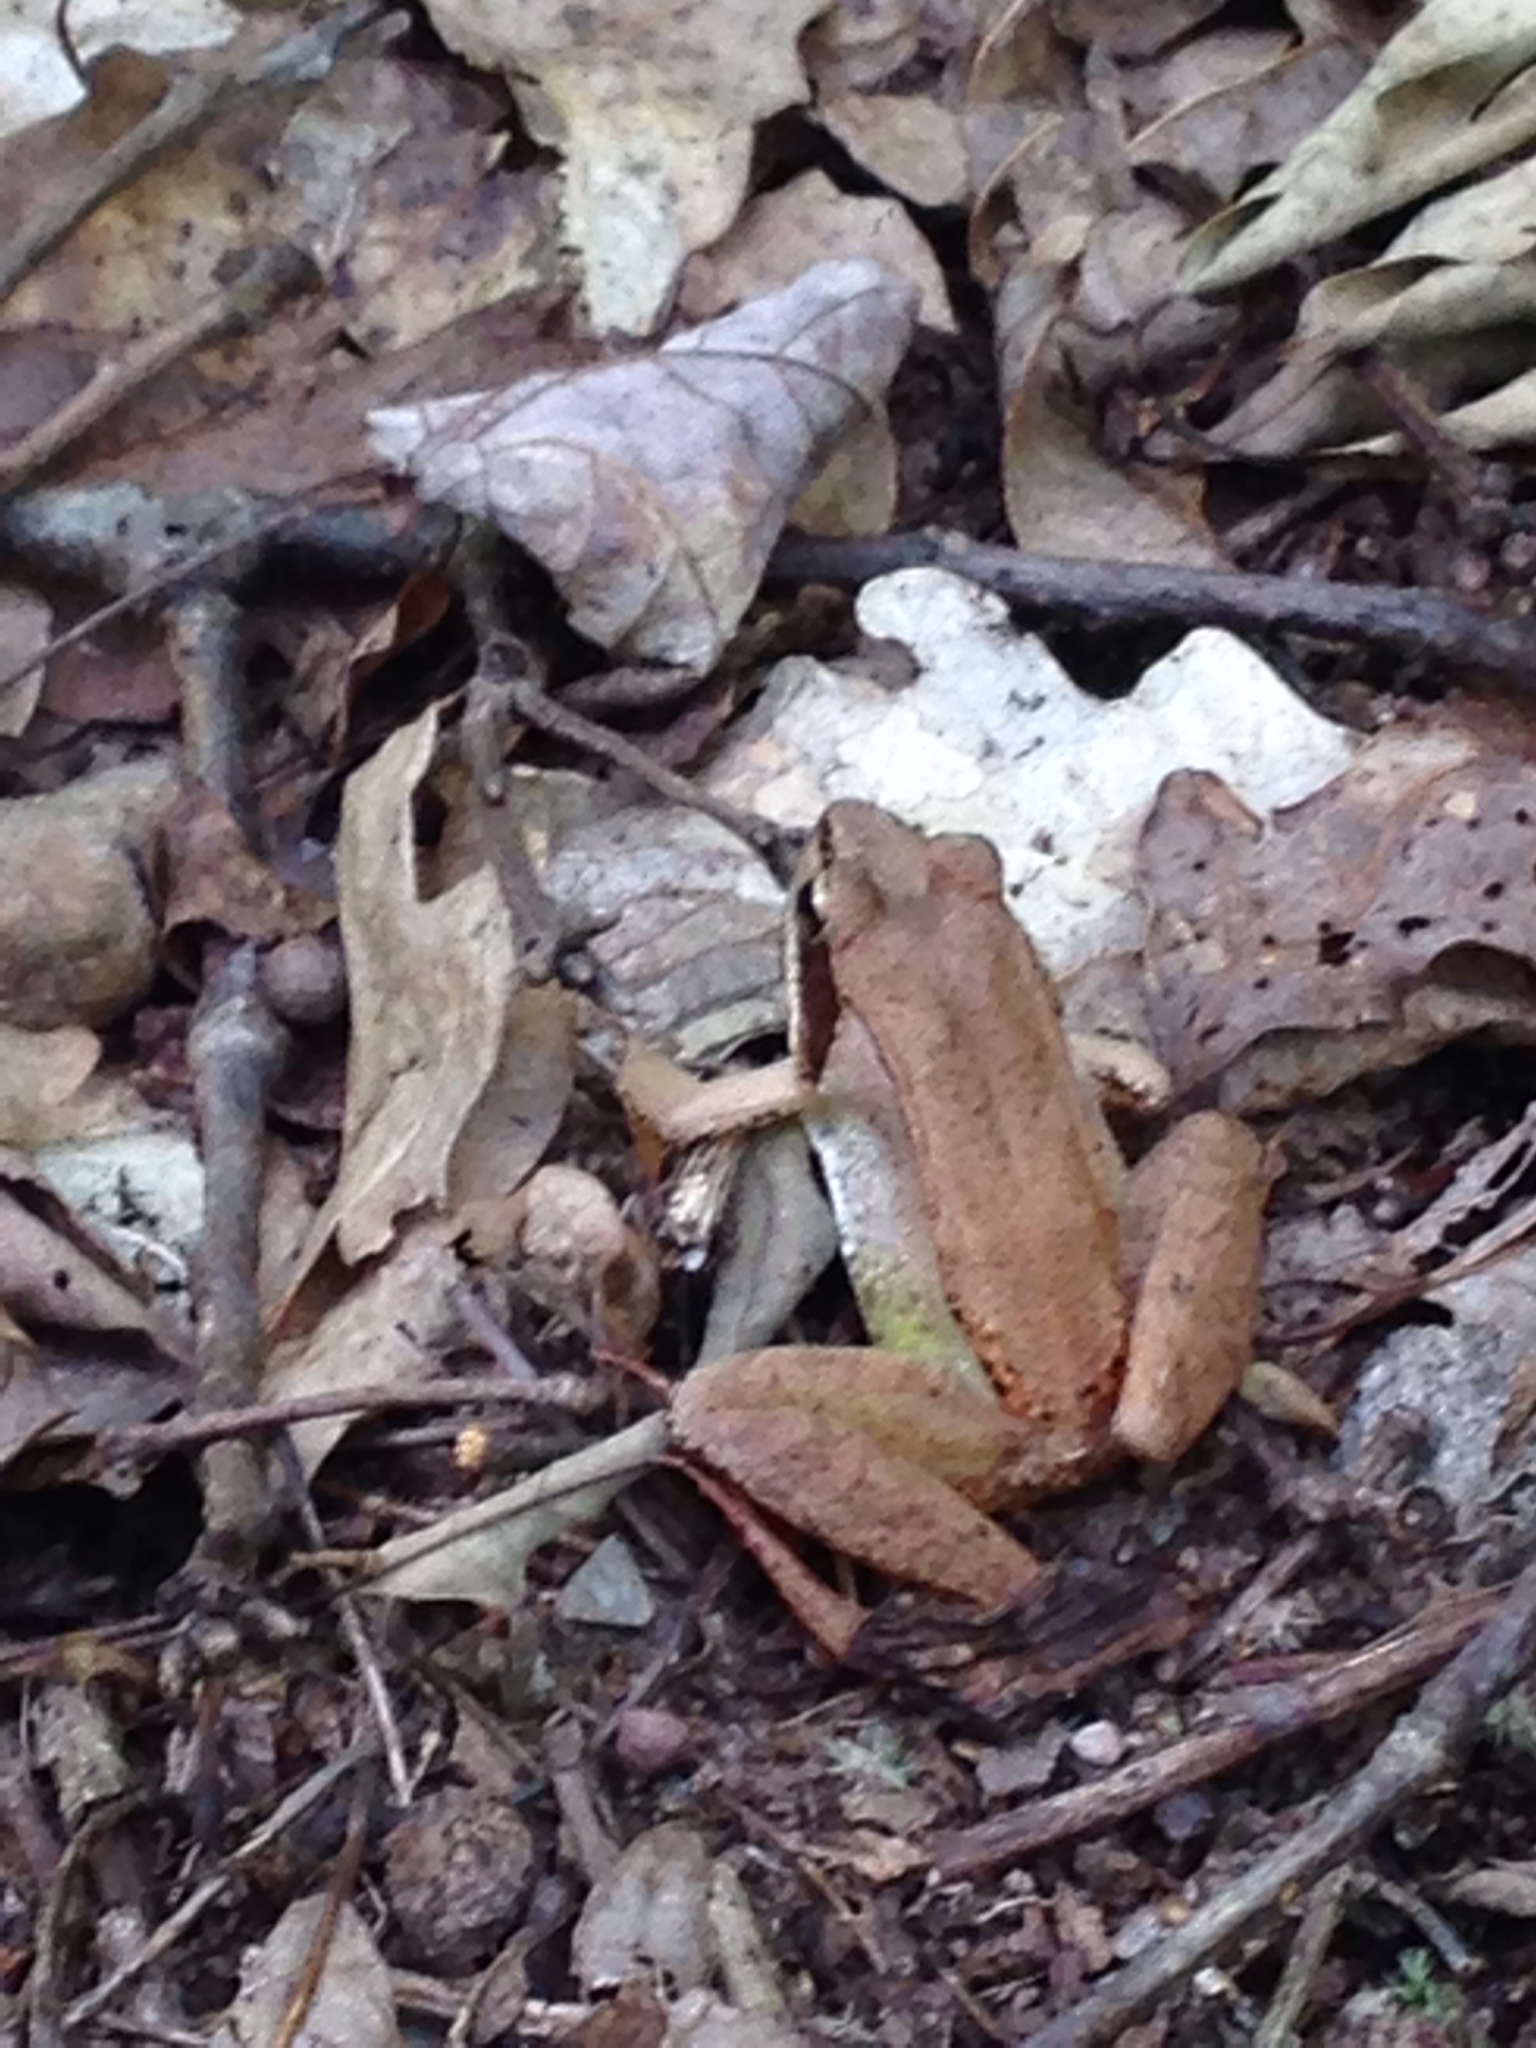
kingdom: Animalia
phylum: Chordata
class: Amphibia
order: Anura
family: Ranidae
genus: Lithobates
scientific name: Lithobates sylvaticus
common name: Wood frog
